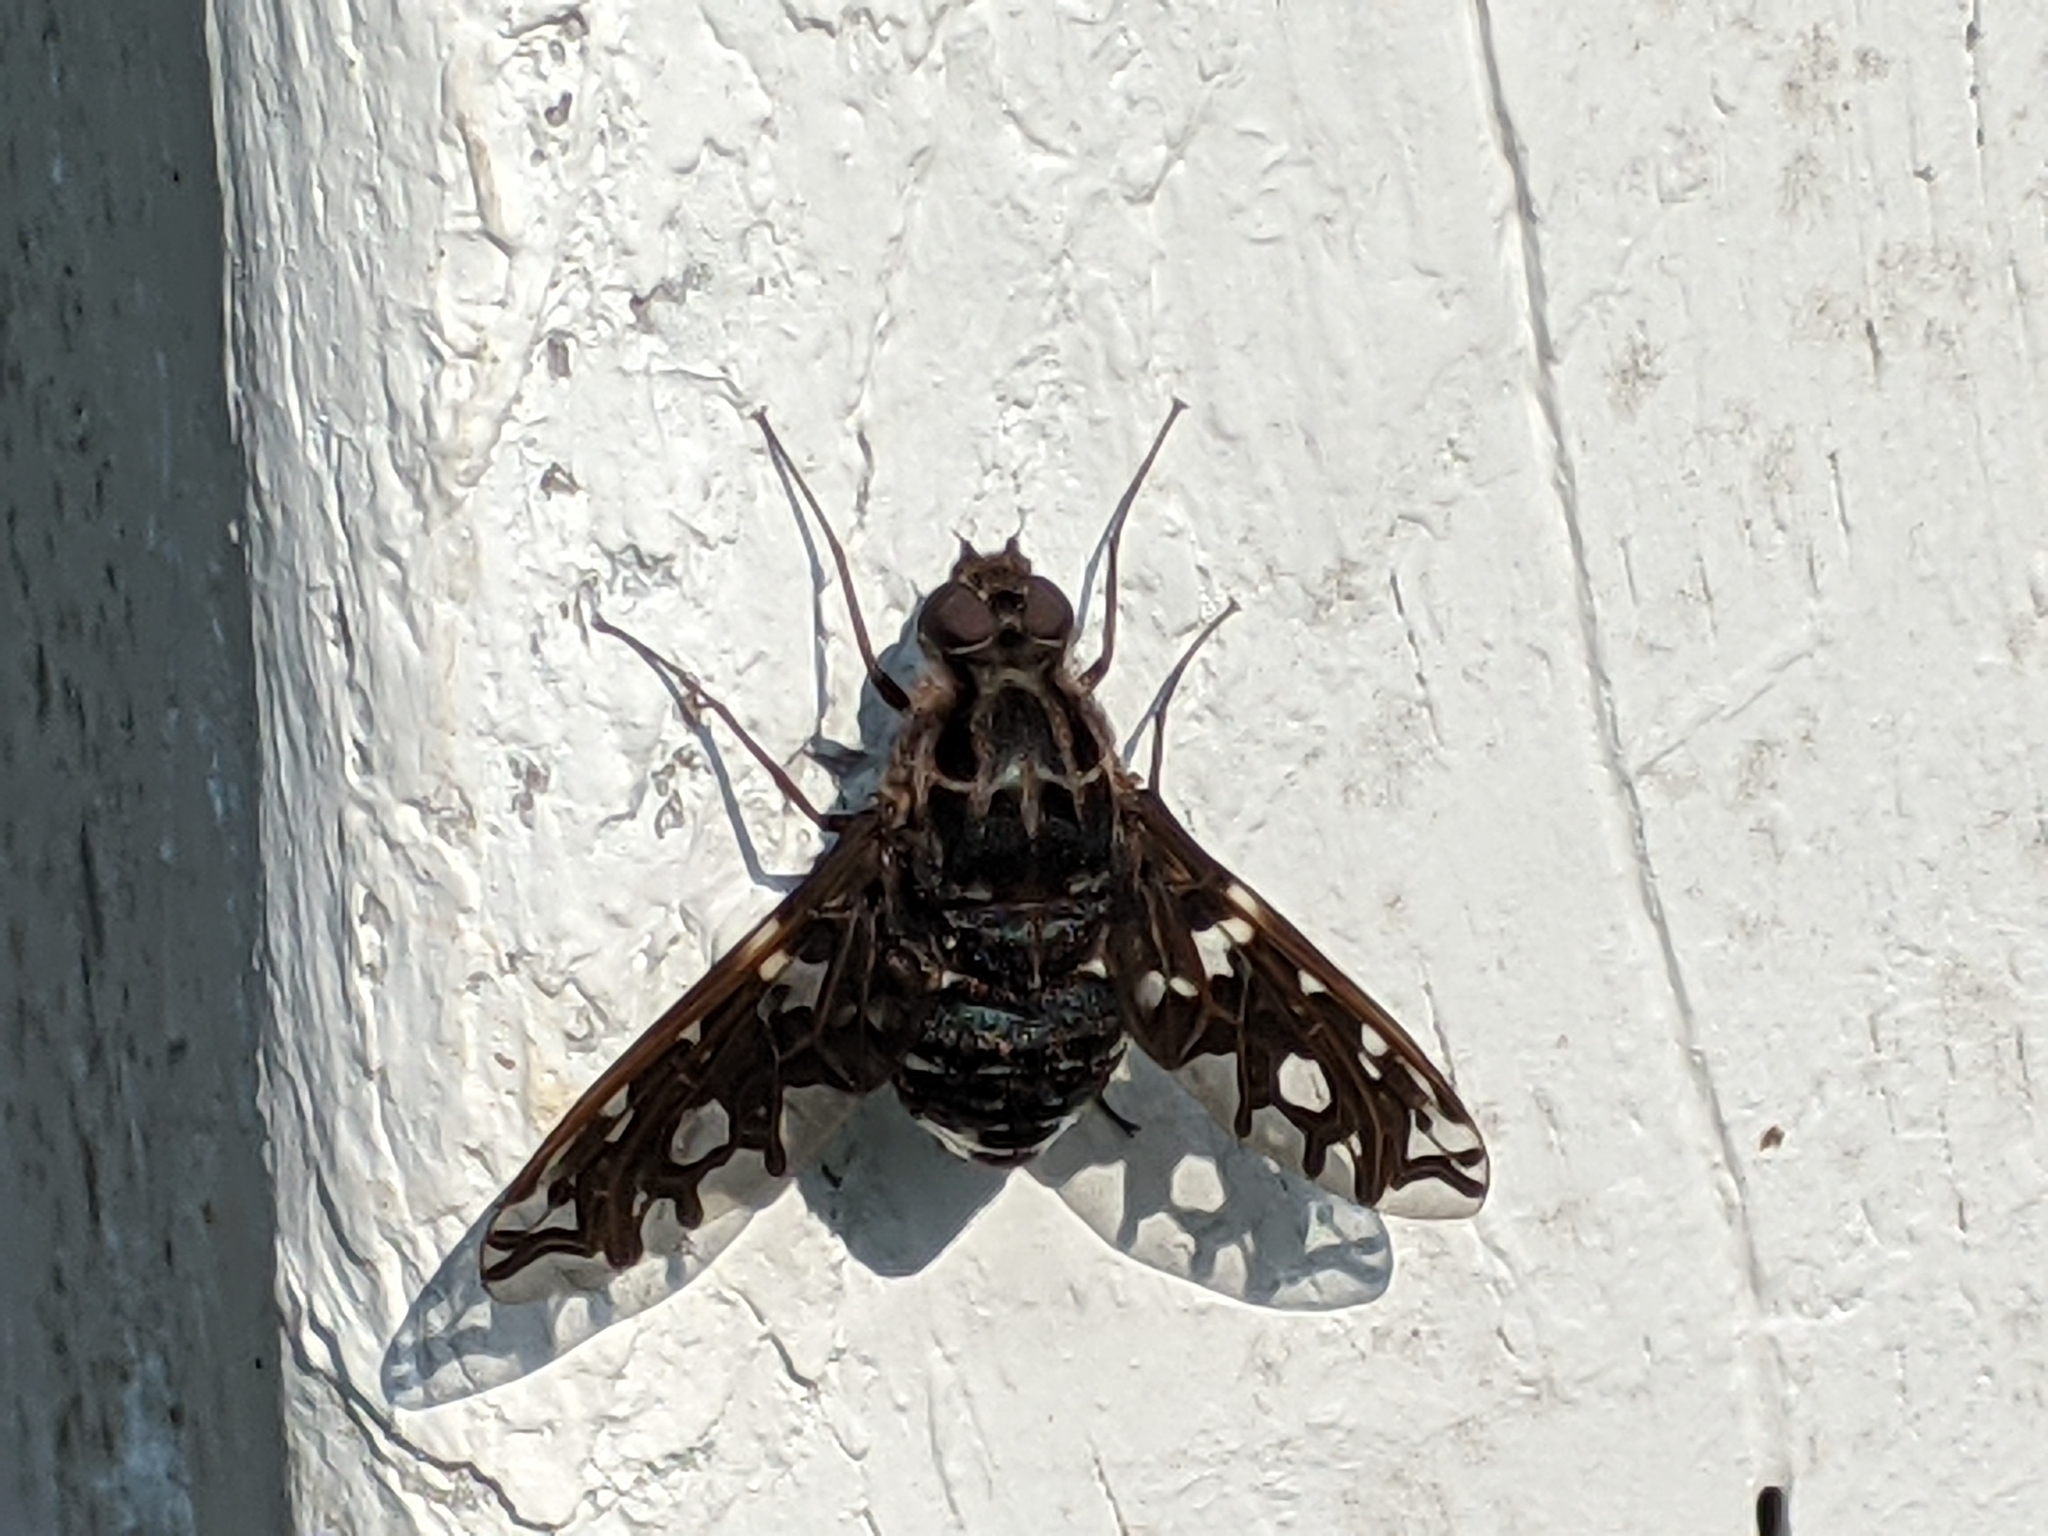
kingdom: Animalia
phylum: Arthropoda
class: Insecta
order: Diptera
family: Bombyliidae
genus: Xenox
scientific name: Xenox tigrinus
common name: Tiger bee fly
